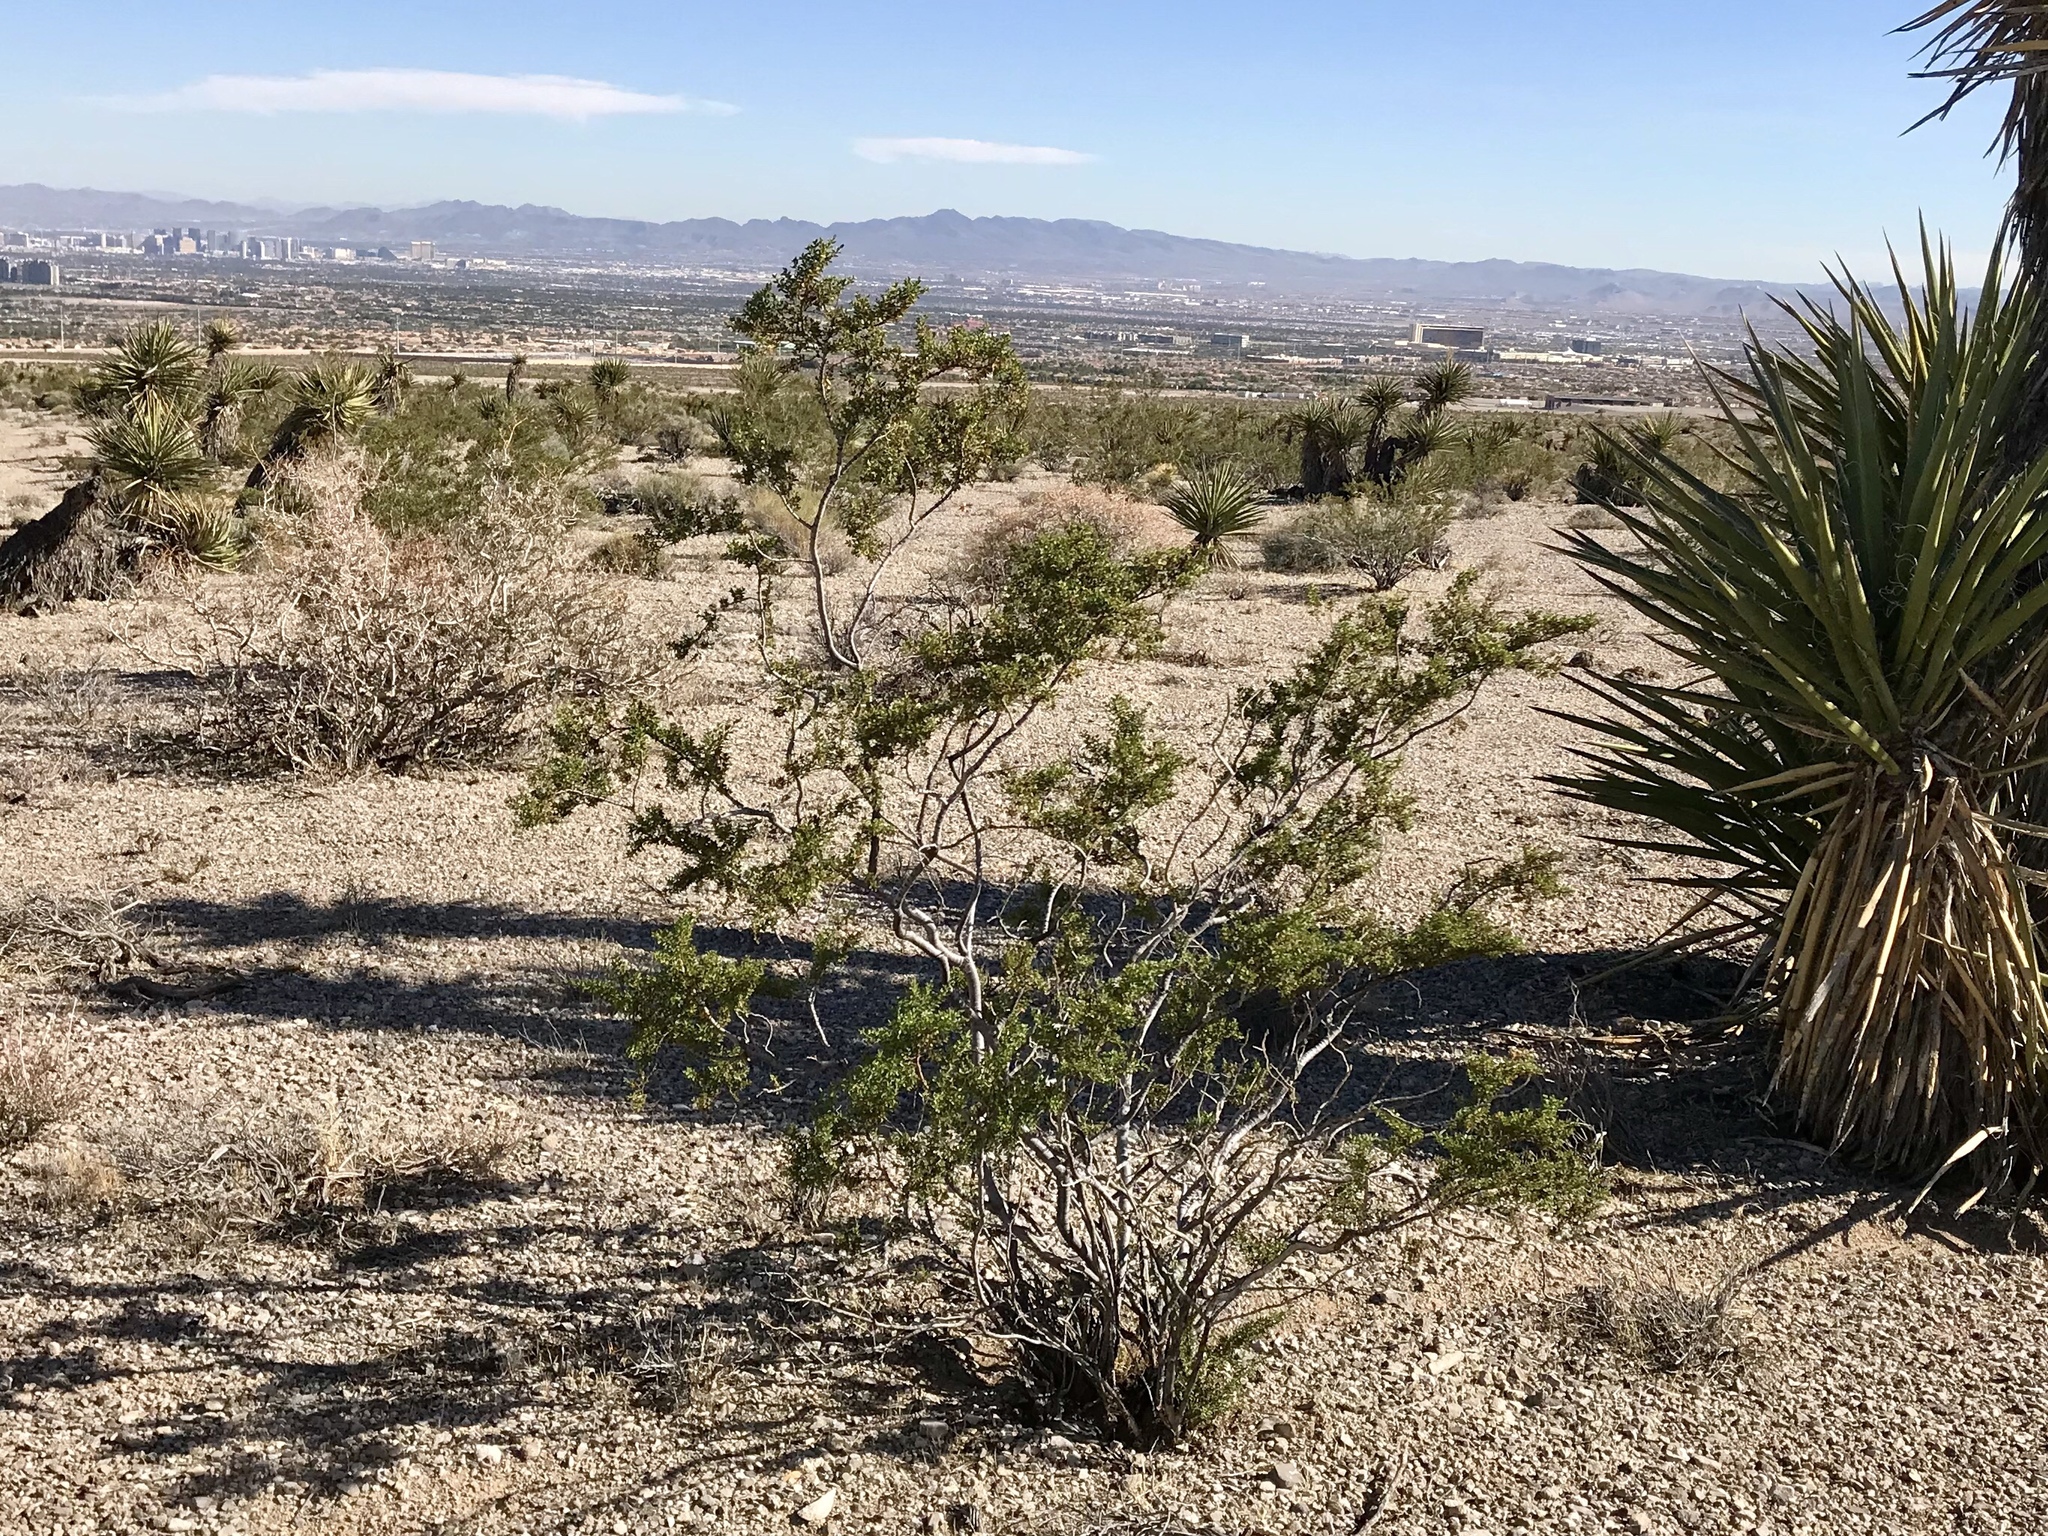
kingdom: Plantae
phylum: Tracheophyta
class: Magnoliopsida
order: Zygophyllales
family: Zygophyllaceae
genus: Larrea
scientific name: Larrea tridentata
